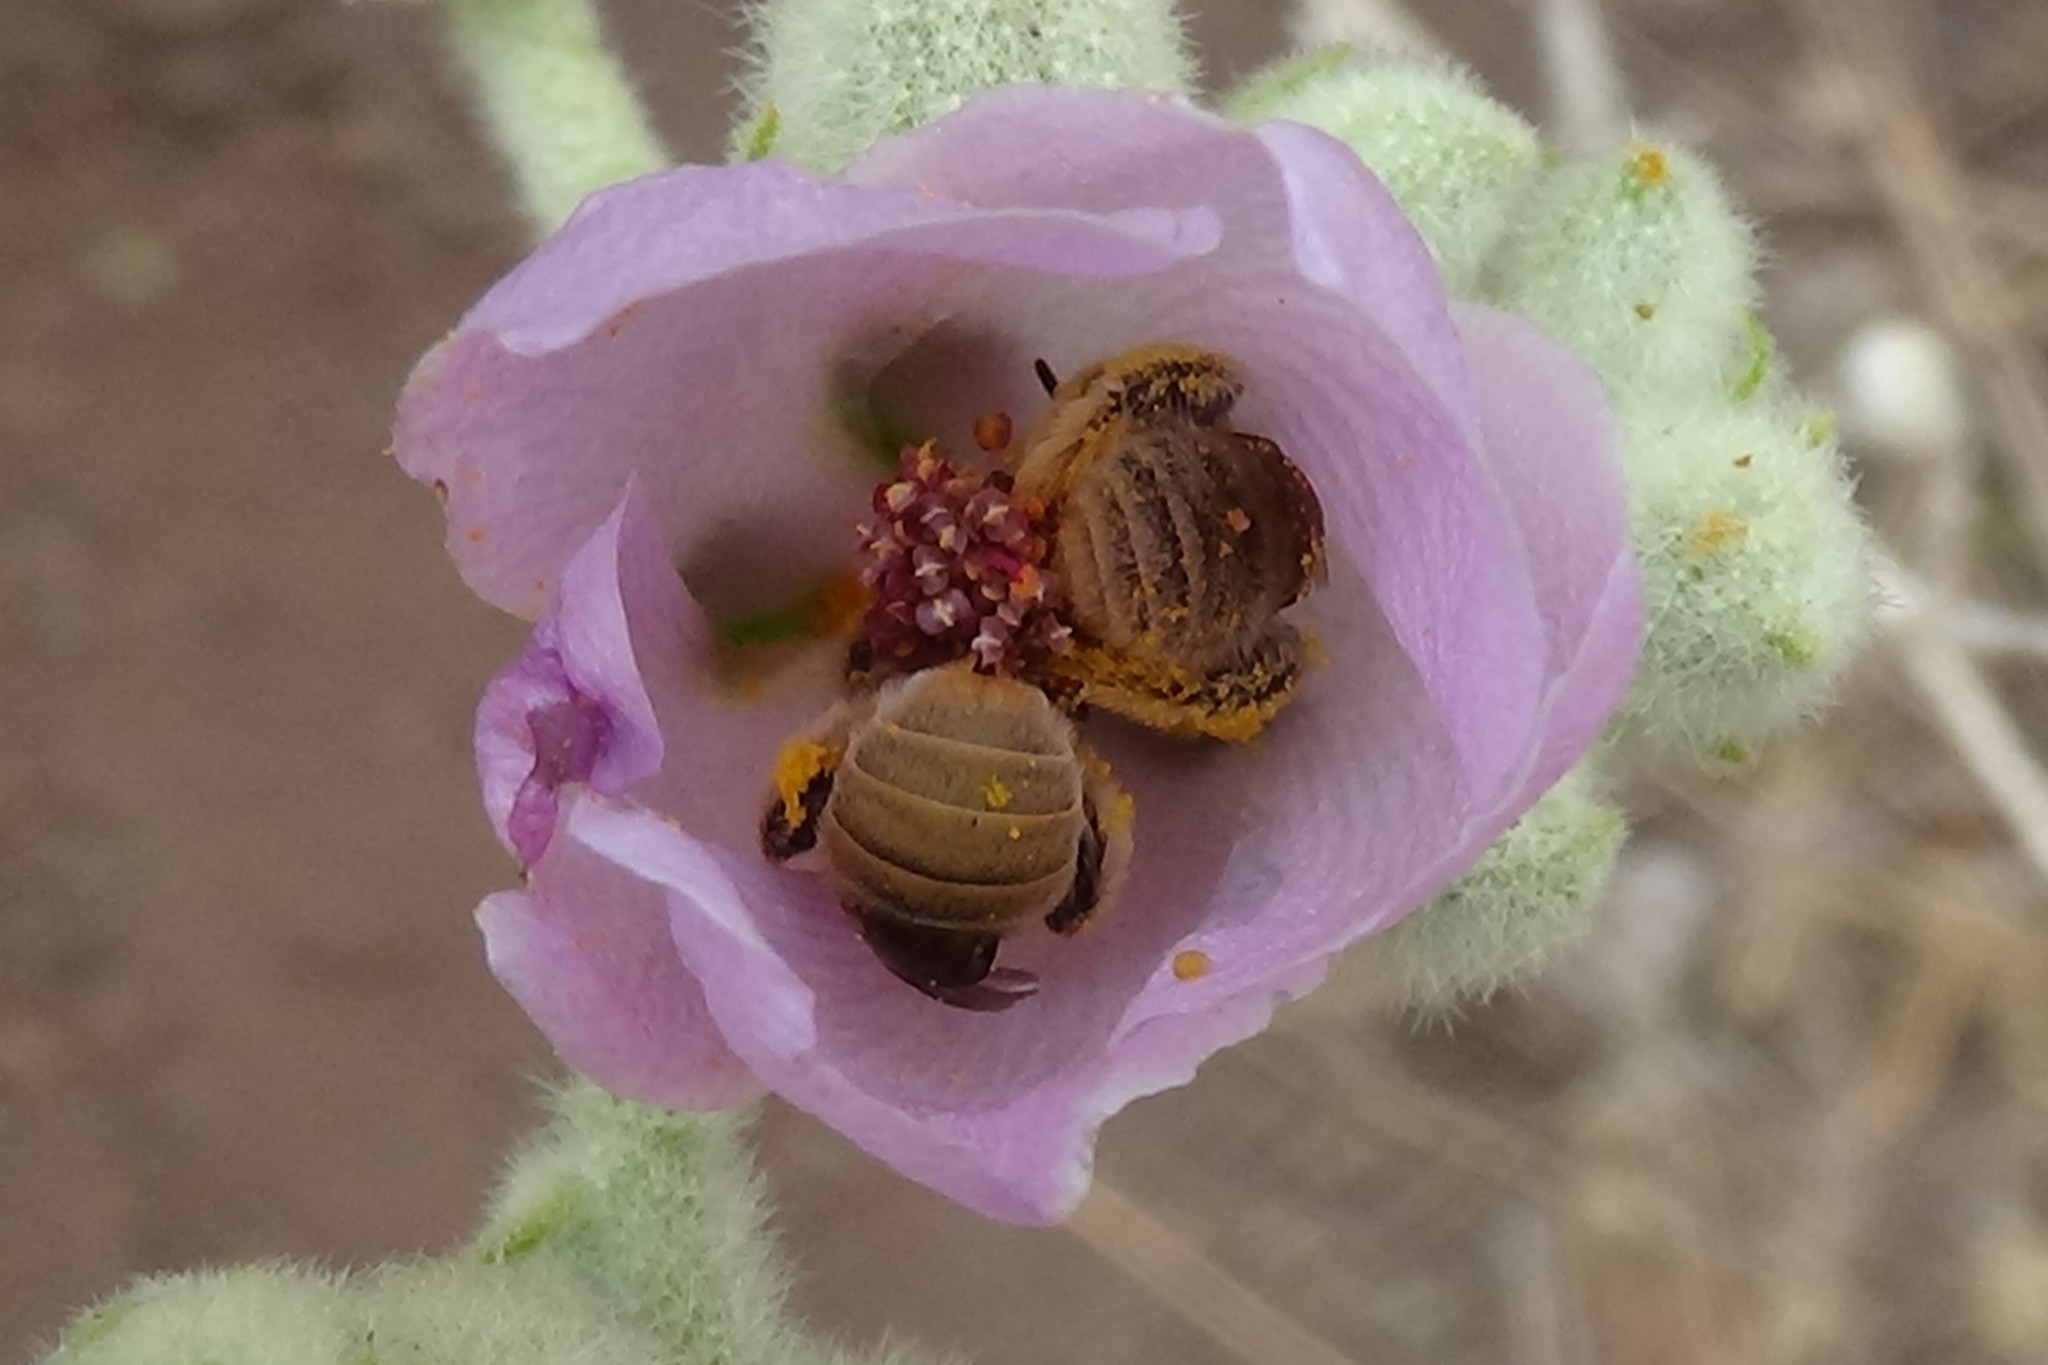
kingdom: Animalia
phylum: Arthropoda
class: Insecta
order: Hymenoptera
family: Apidae
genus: Diadasia
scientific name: Diadasia ochracea
